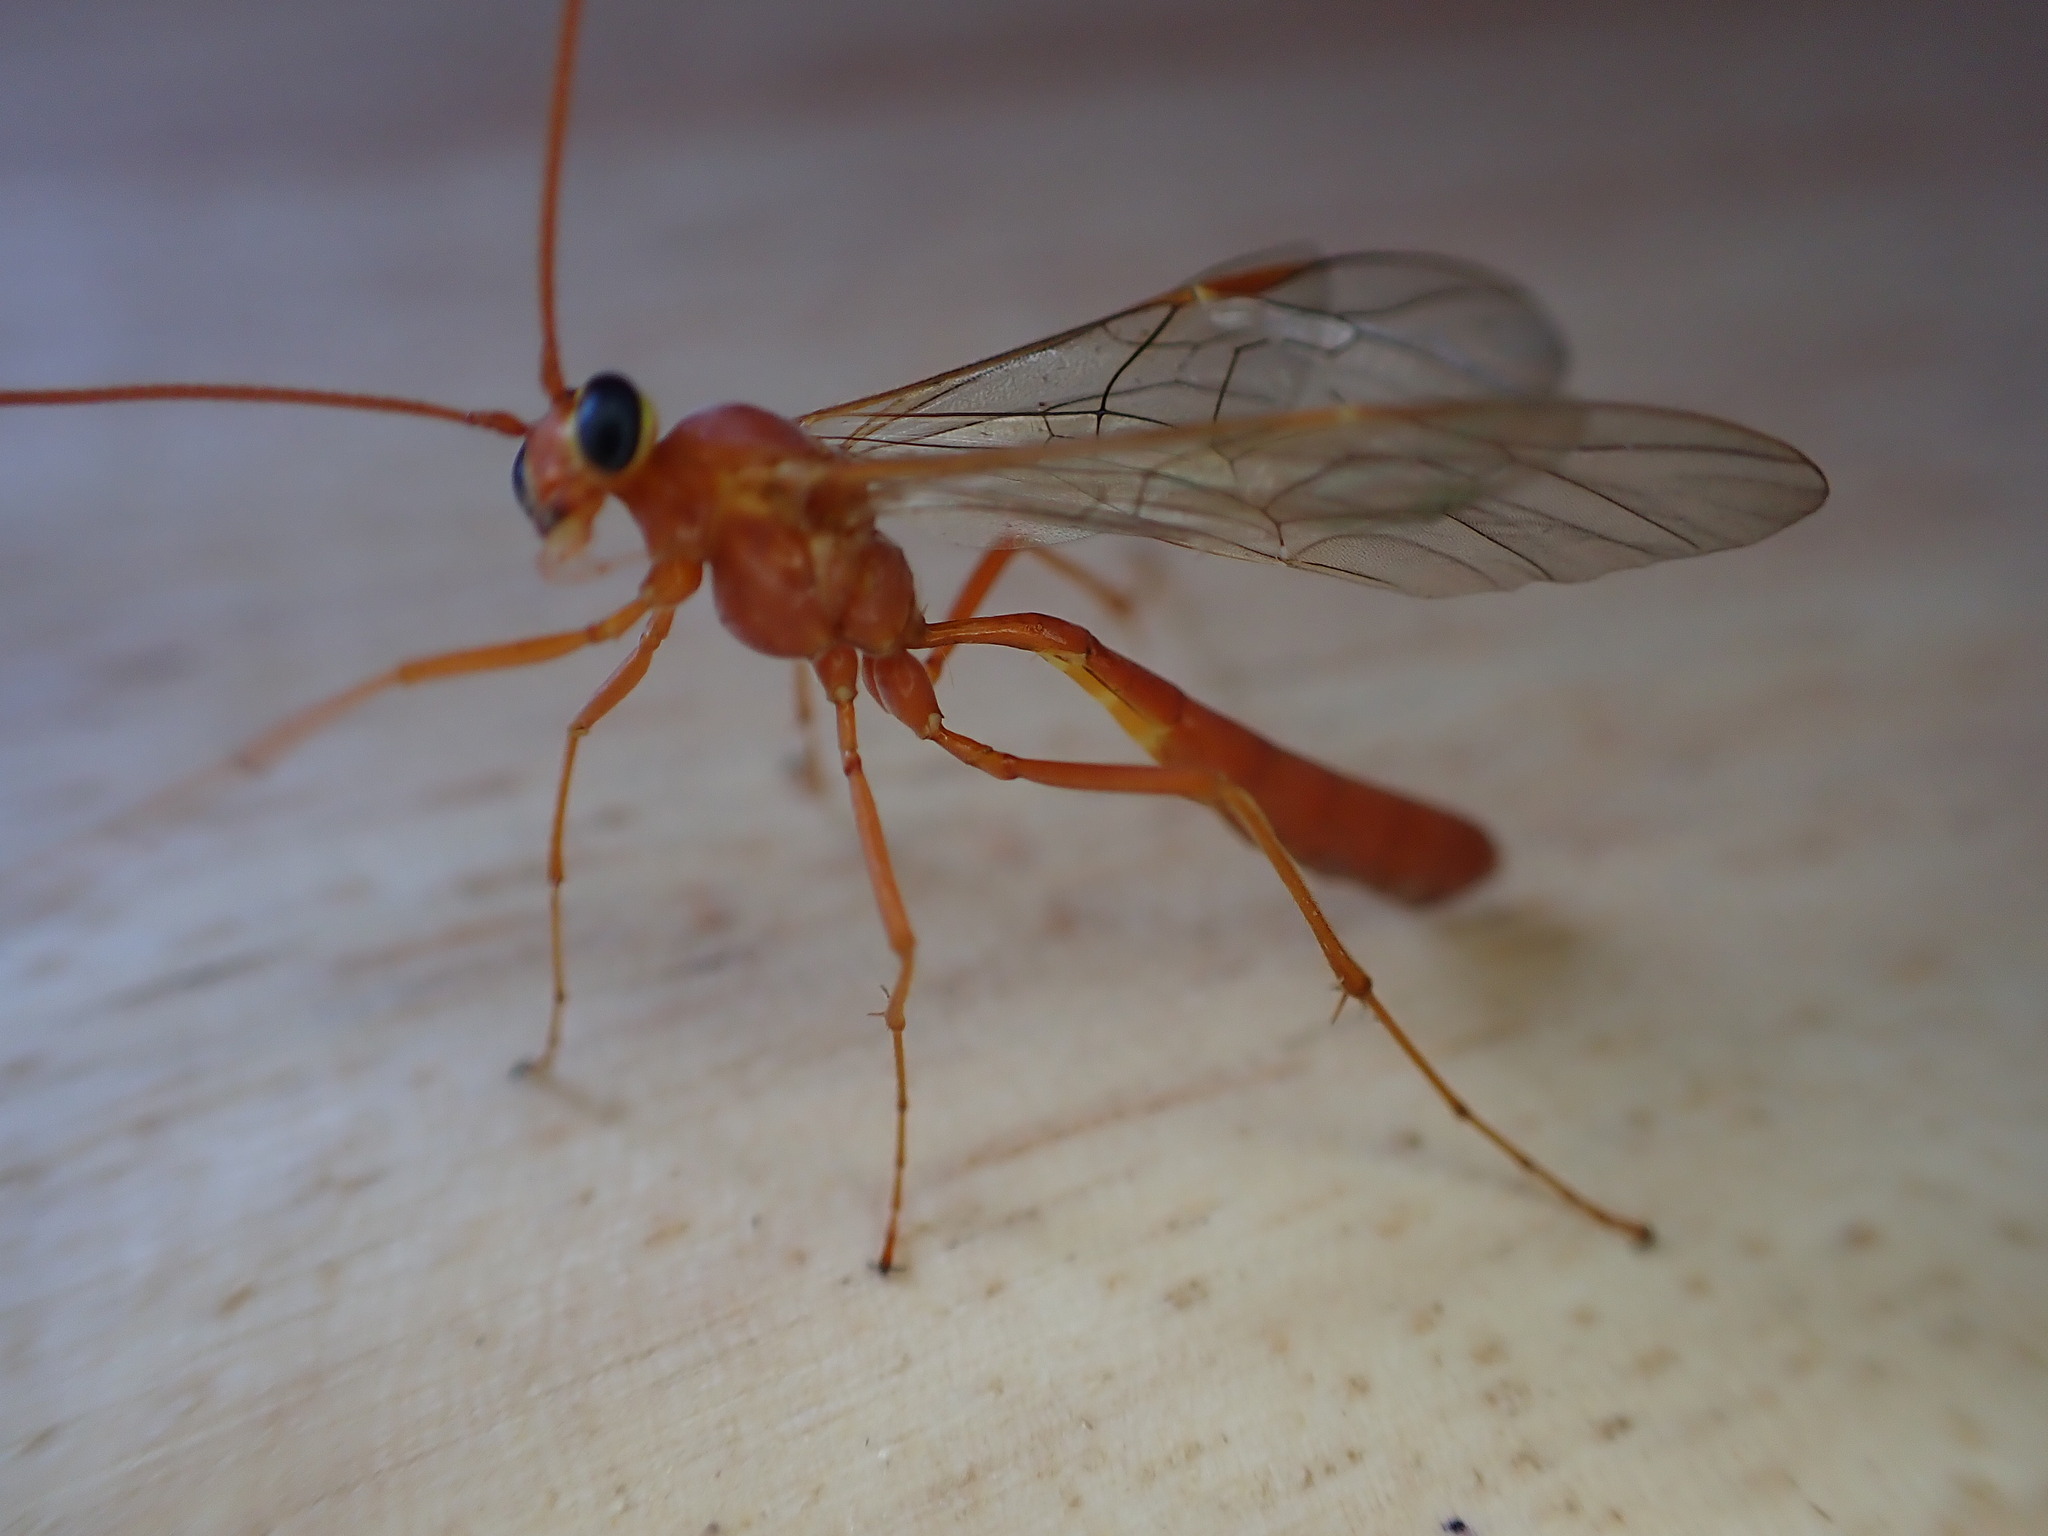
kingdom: Animalia
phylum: Arthropoda
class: Insecta
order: Hymenoptera
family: Ichneumonidae
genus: Ophion
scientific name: Ophion
